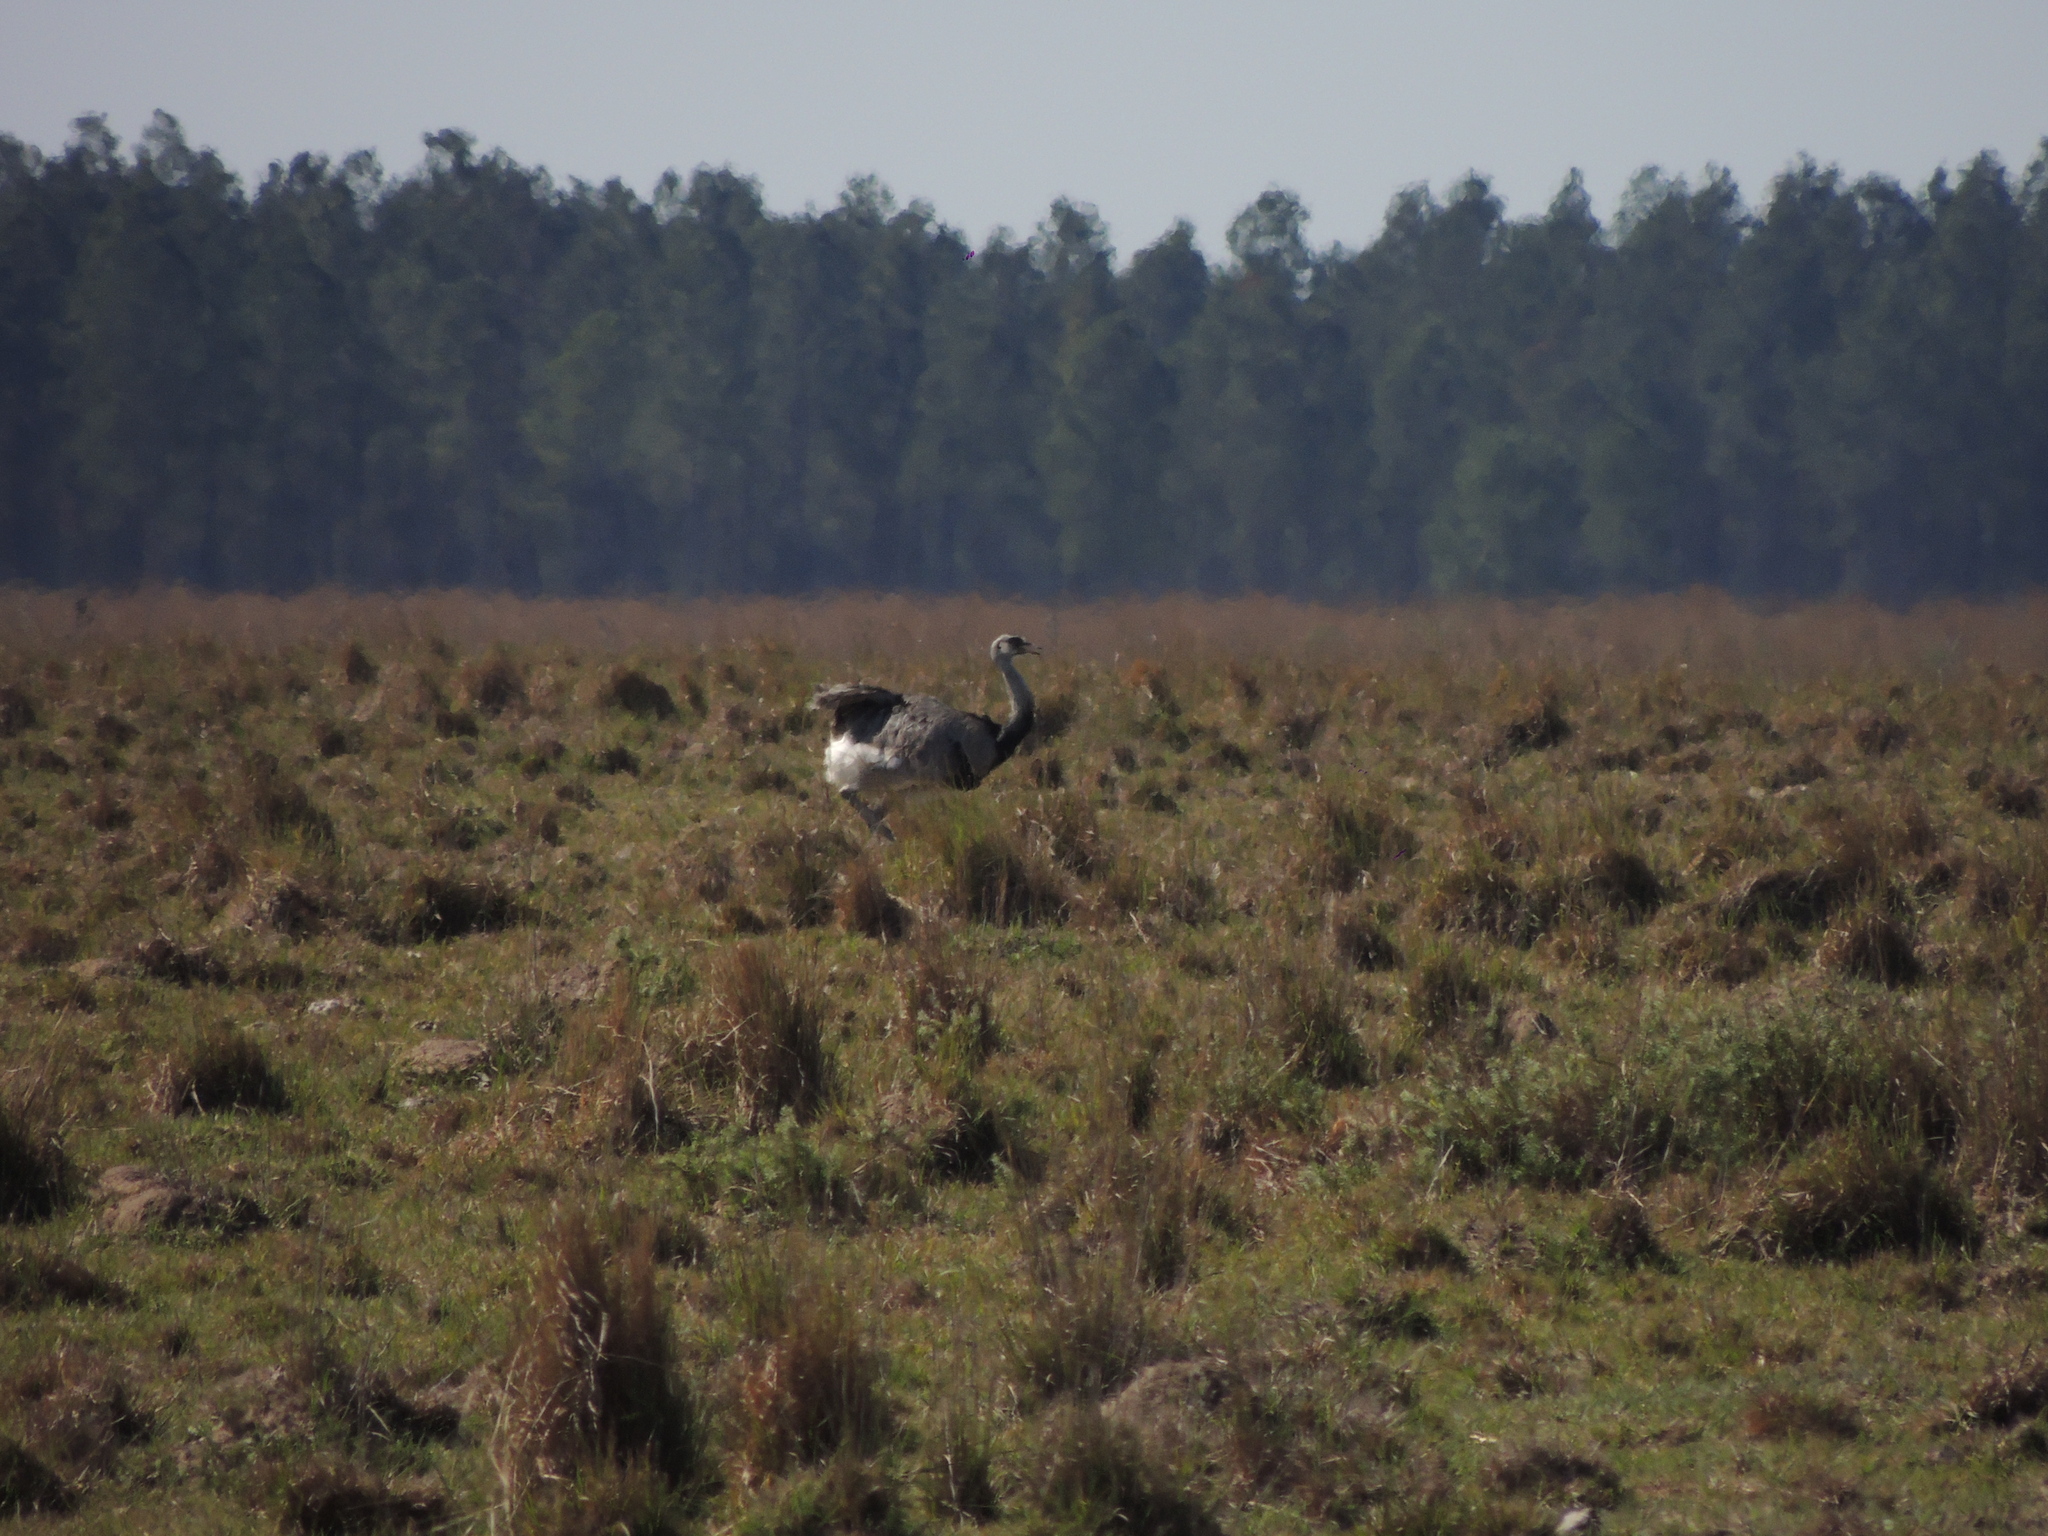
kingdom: Animalia
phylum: Chordata
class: Aves
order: Rheiformes
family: Rheidae
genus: Rhea
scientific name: Rhea americana
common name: Greater rhea
